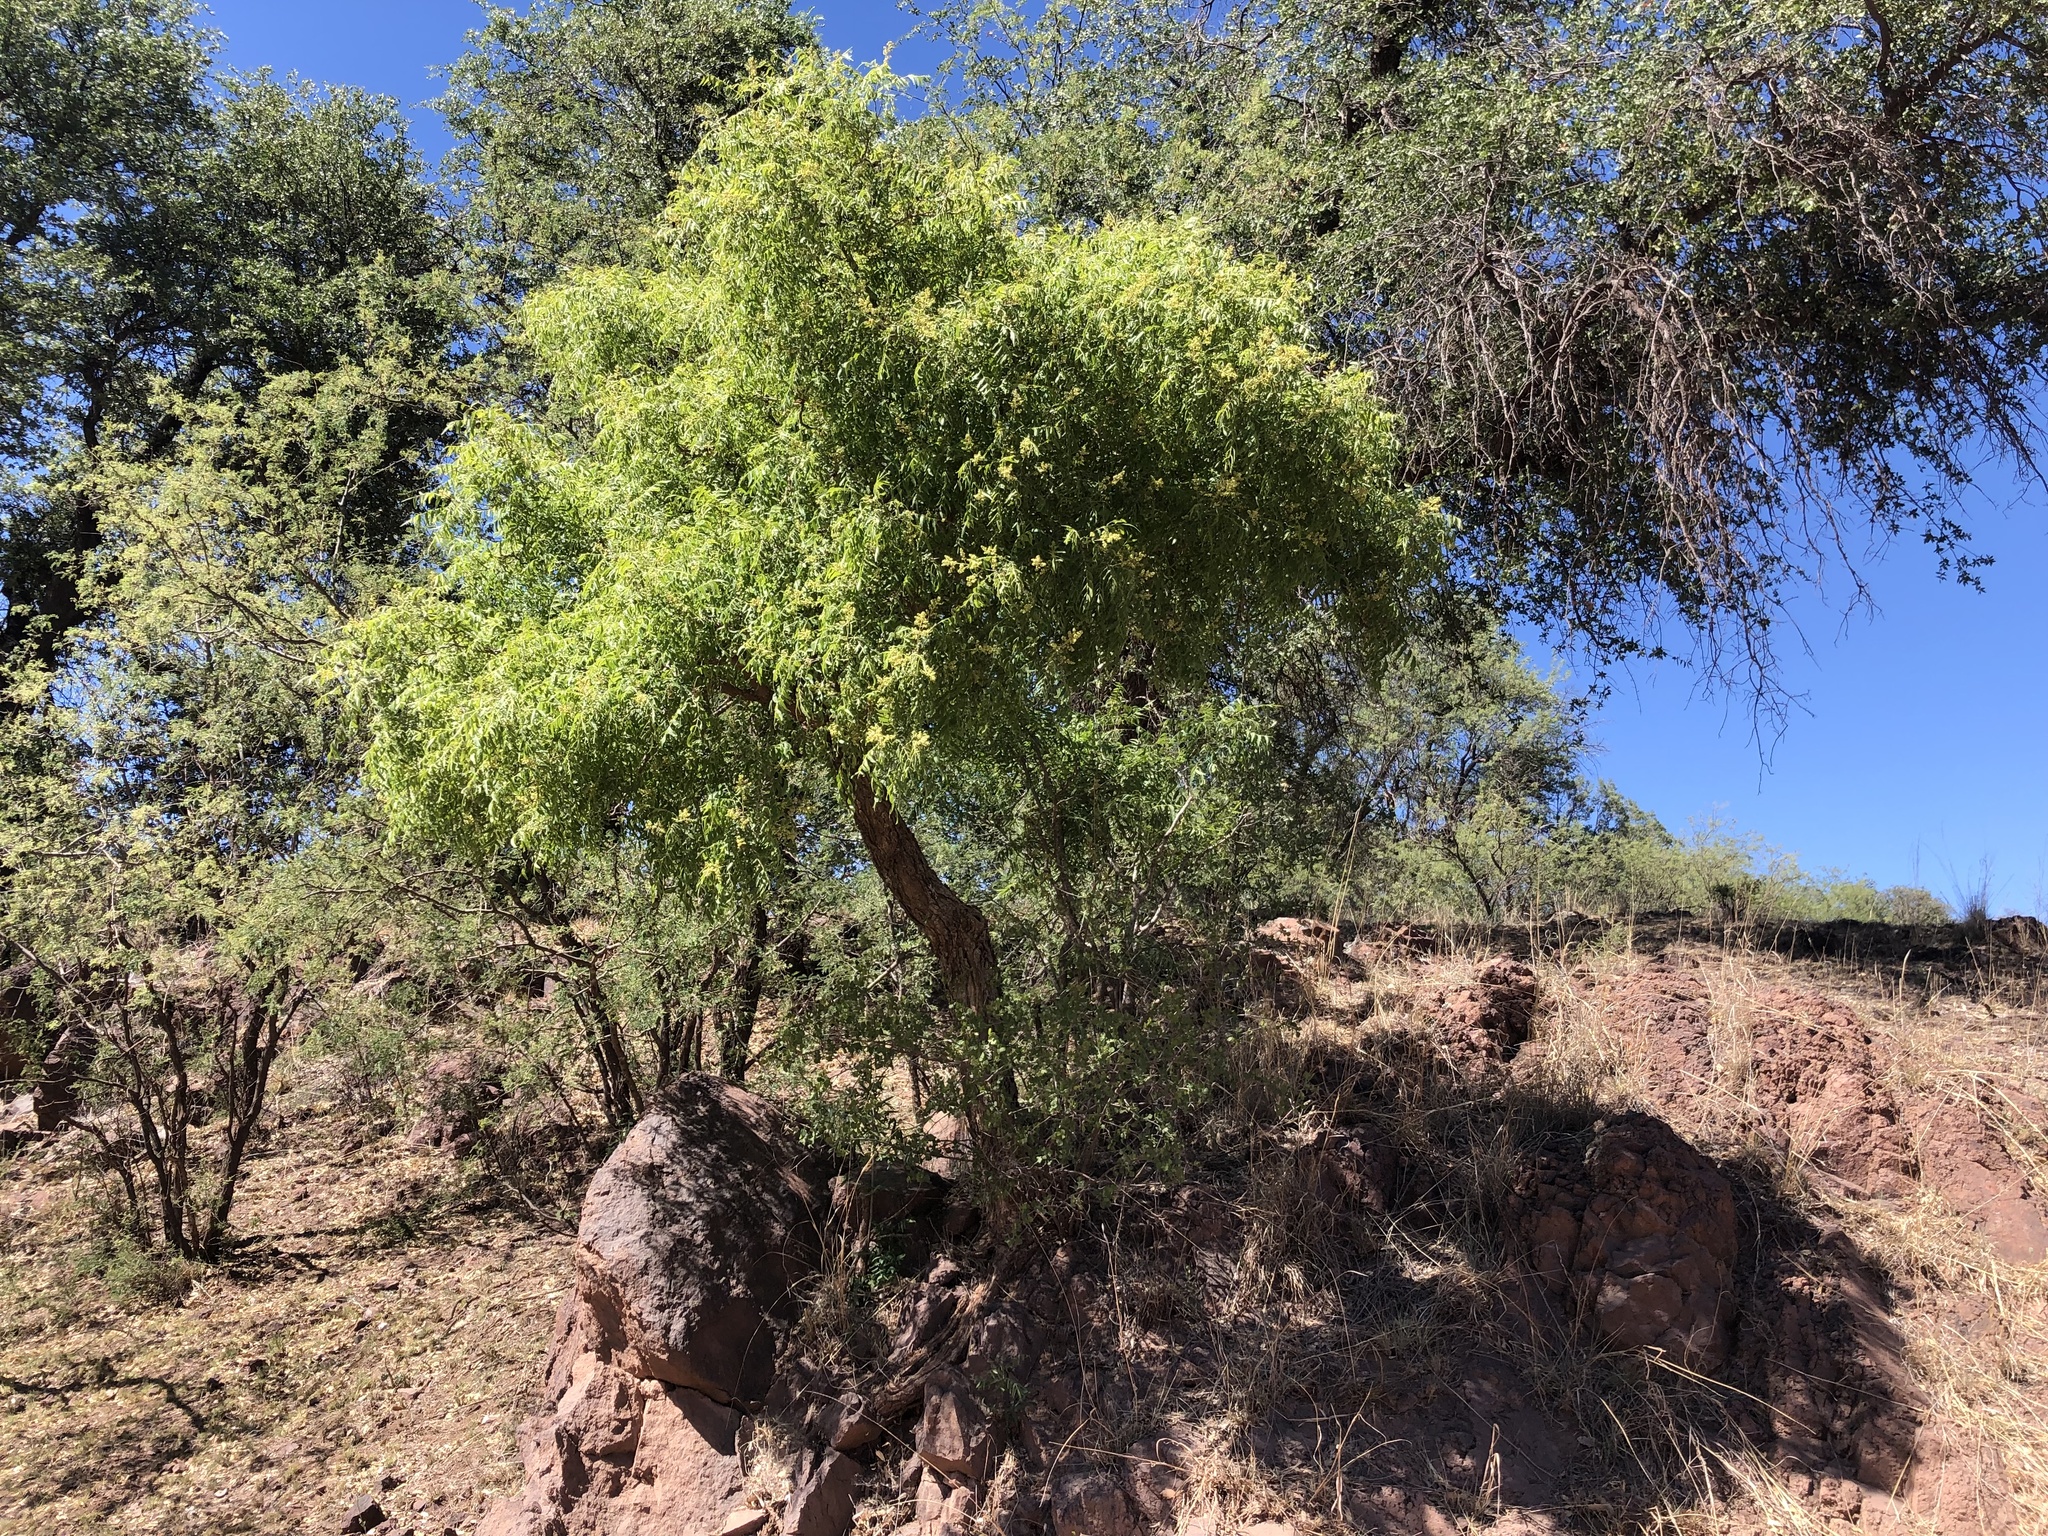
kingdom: Plantae
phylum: Tracheophyta
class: Magnoliopsida
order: Sapindales
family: Sapindaceae
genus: Sapindus
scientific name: Sapindus drummondii
